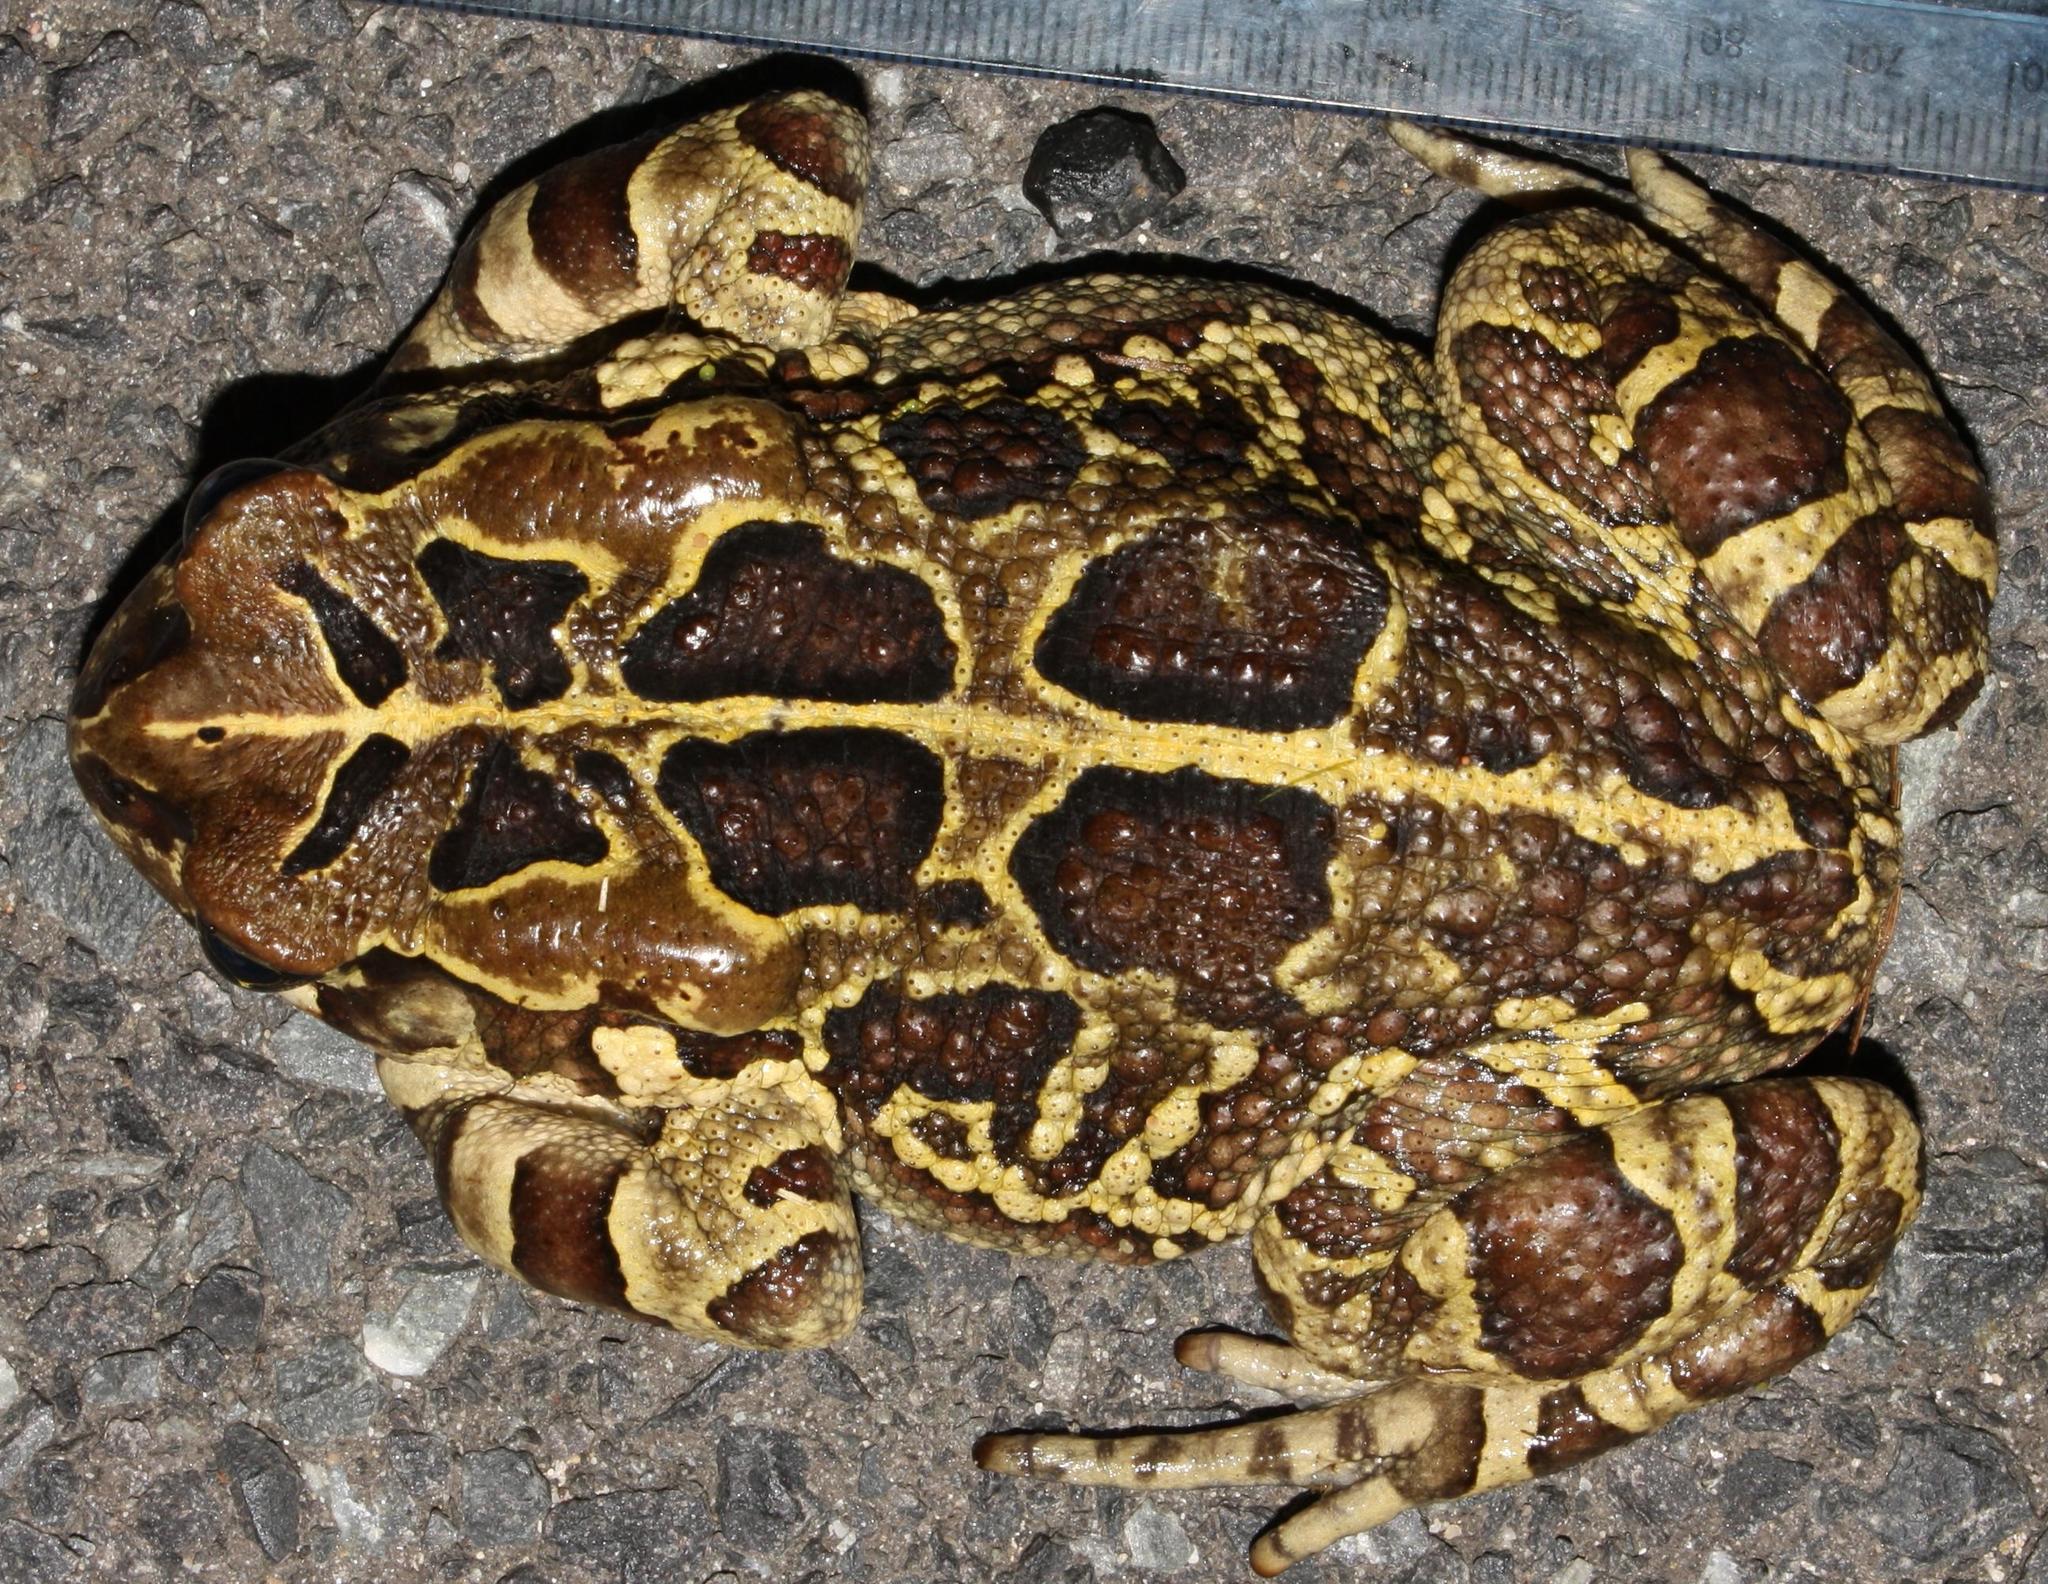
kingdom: Animalia
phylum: Chordata
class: Amphibia
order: Anura
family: Bufonidae
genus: Sclerophrys
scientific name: Sclerophrys pantherina
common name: Panther toad
